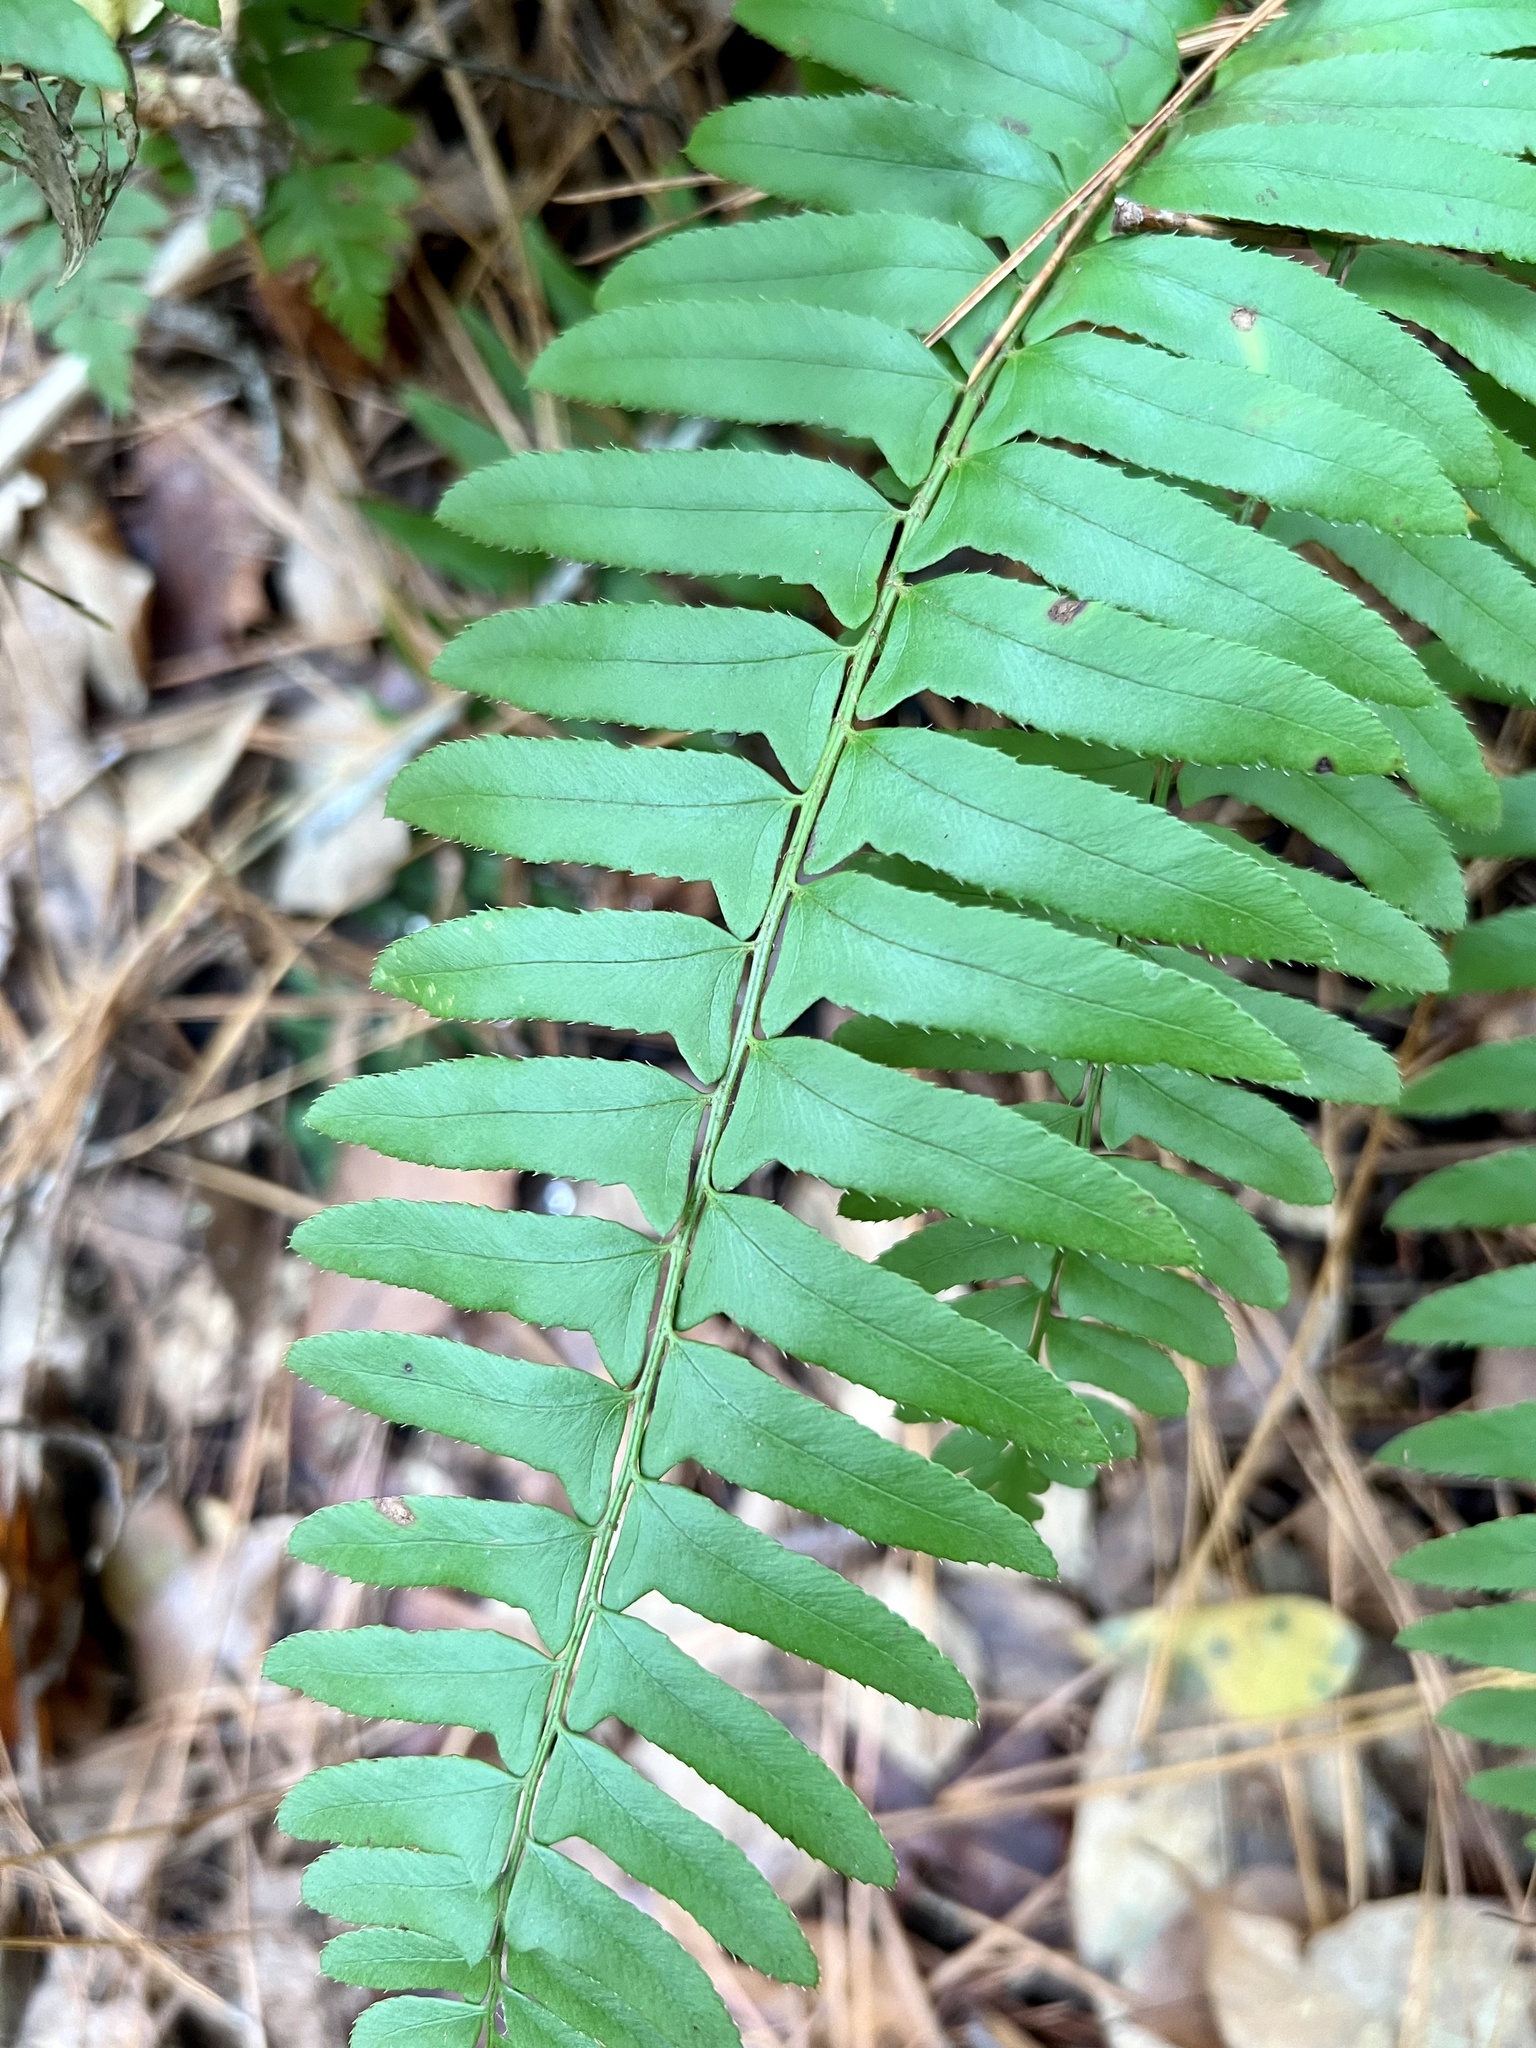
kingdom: Plantae
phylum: Tracheophyta
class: Polypodiopsida
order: Polypodiales
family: Dryopteridaceae
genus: Polystichum
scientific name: Polystichum acrostichoides
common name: Christmas fern
